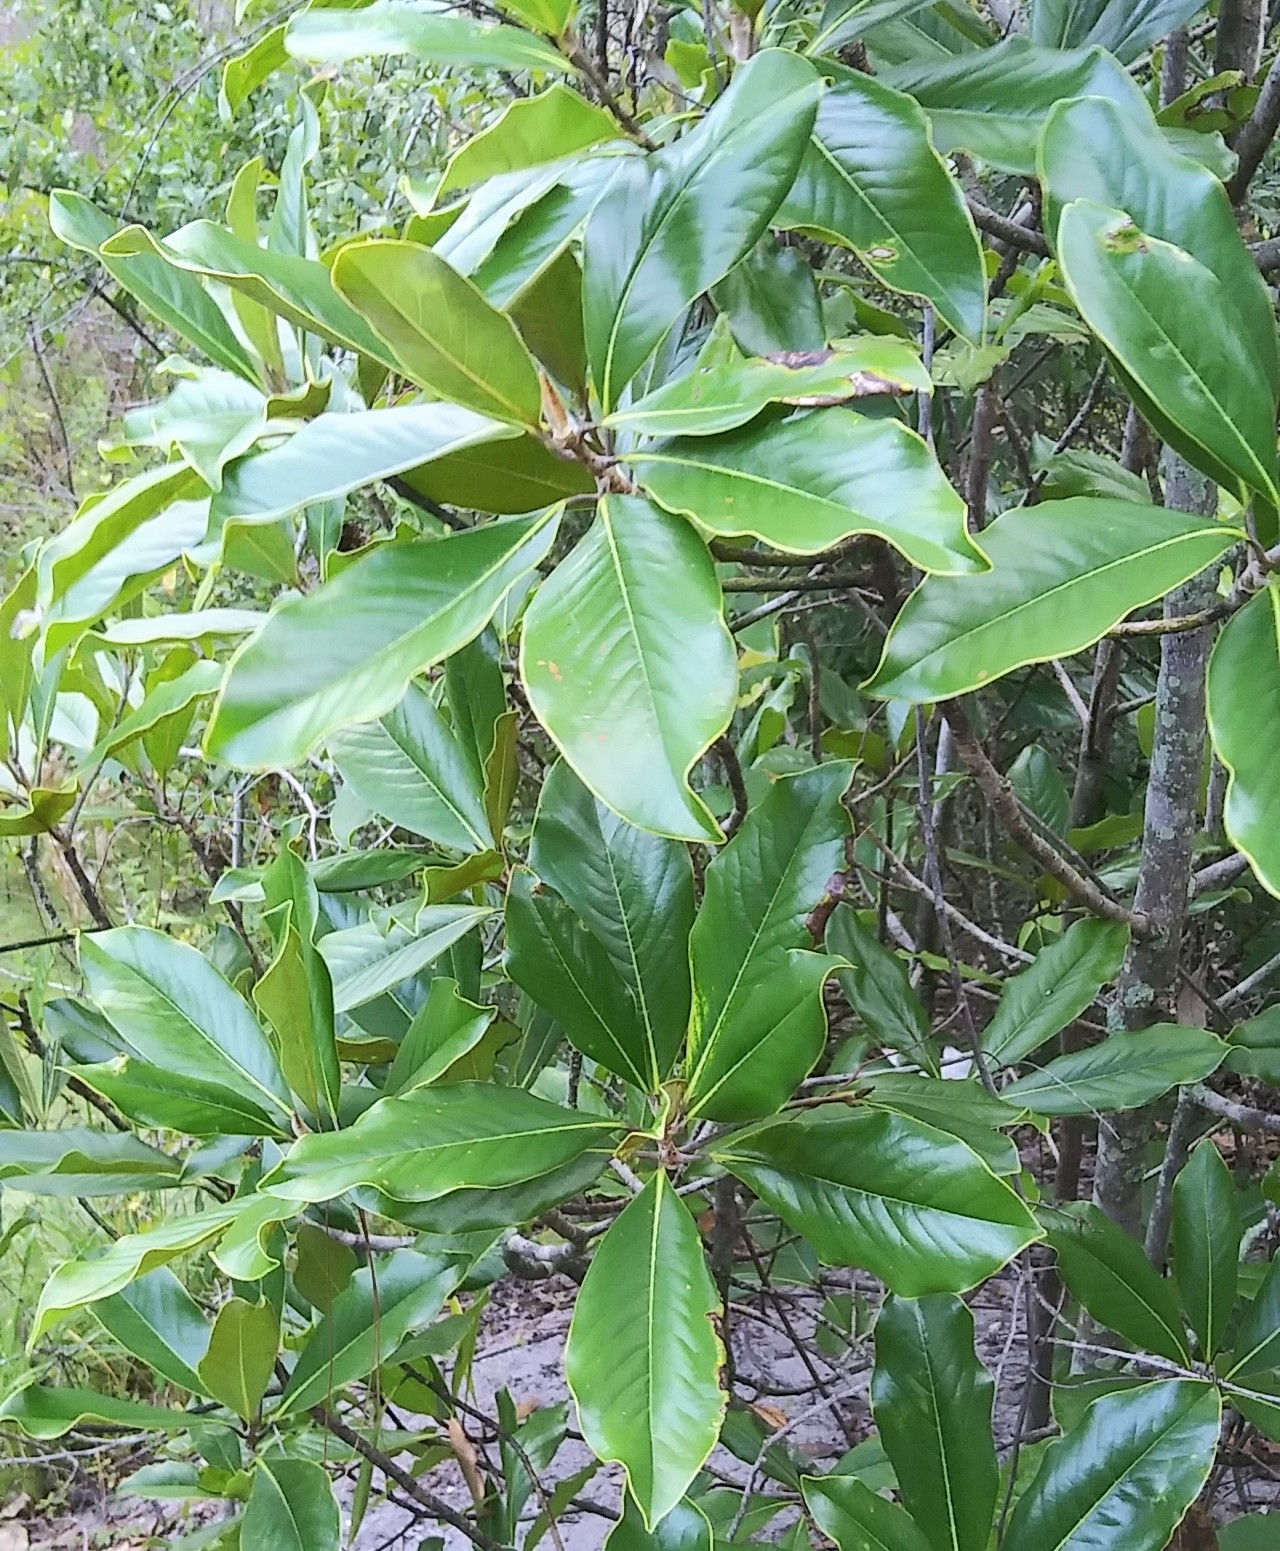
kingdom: Plantae
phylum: Tracheophyta
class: Magnoliopsida
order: Magnoliales
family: Magnoliaceae
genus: Magnolia
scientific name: Magnolia grandiflora
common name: Southern magnolia
